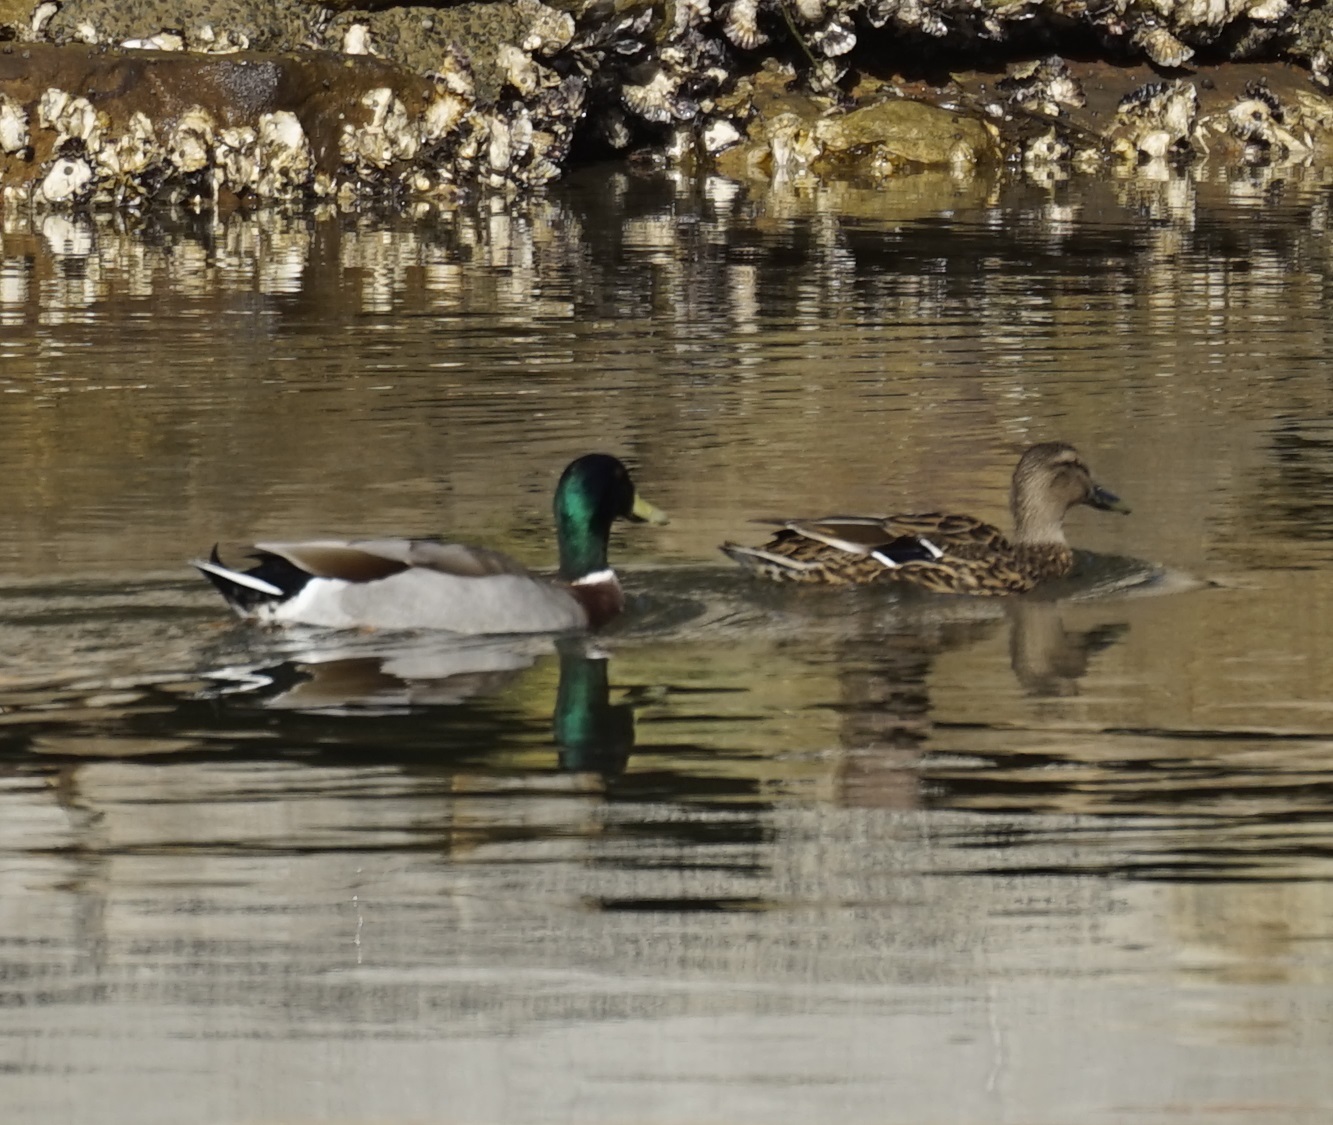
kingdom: Animalia
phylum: Chordata
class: Aves
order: Anseriformes
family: Anatidae
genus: Anas
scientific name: Anas platyrhynchos
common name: Mallard
